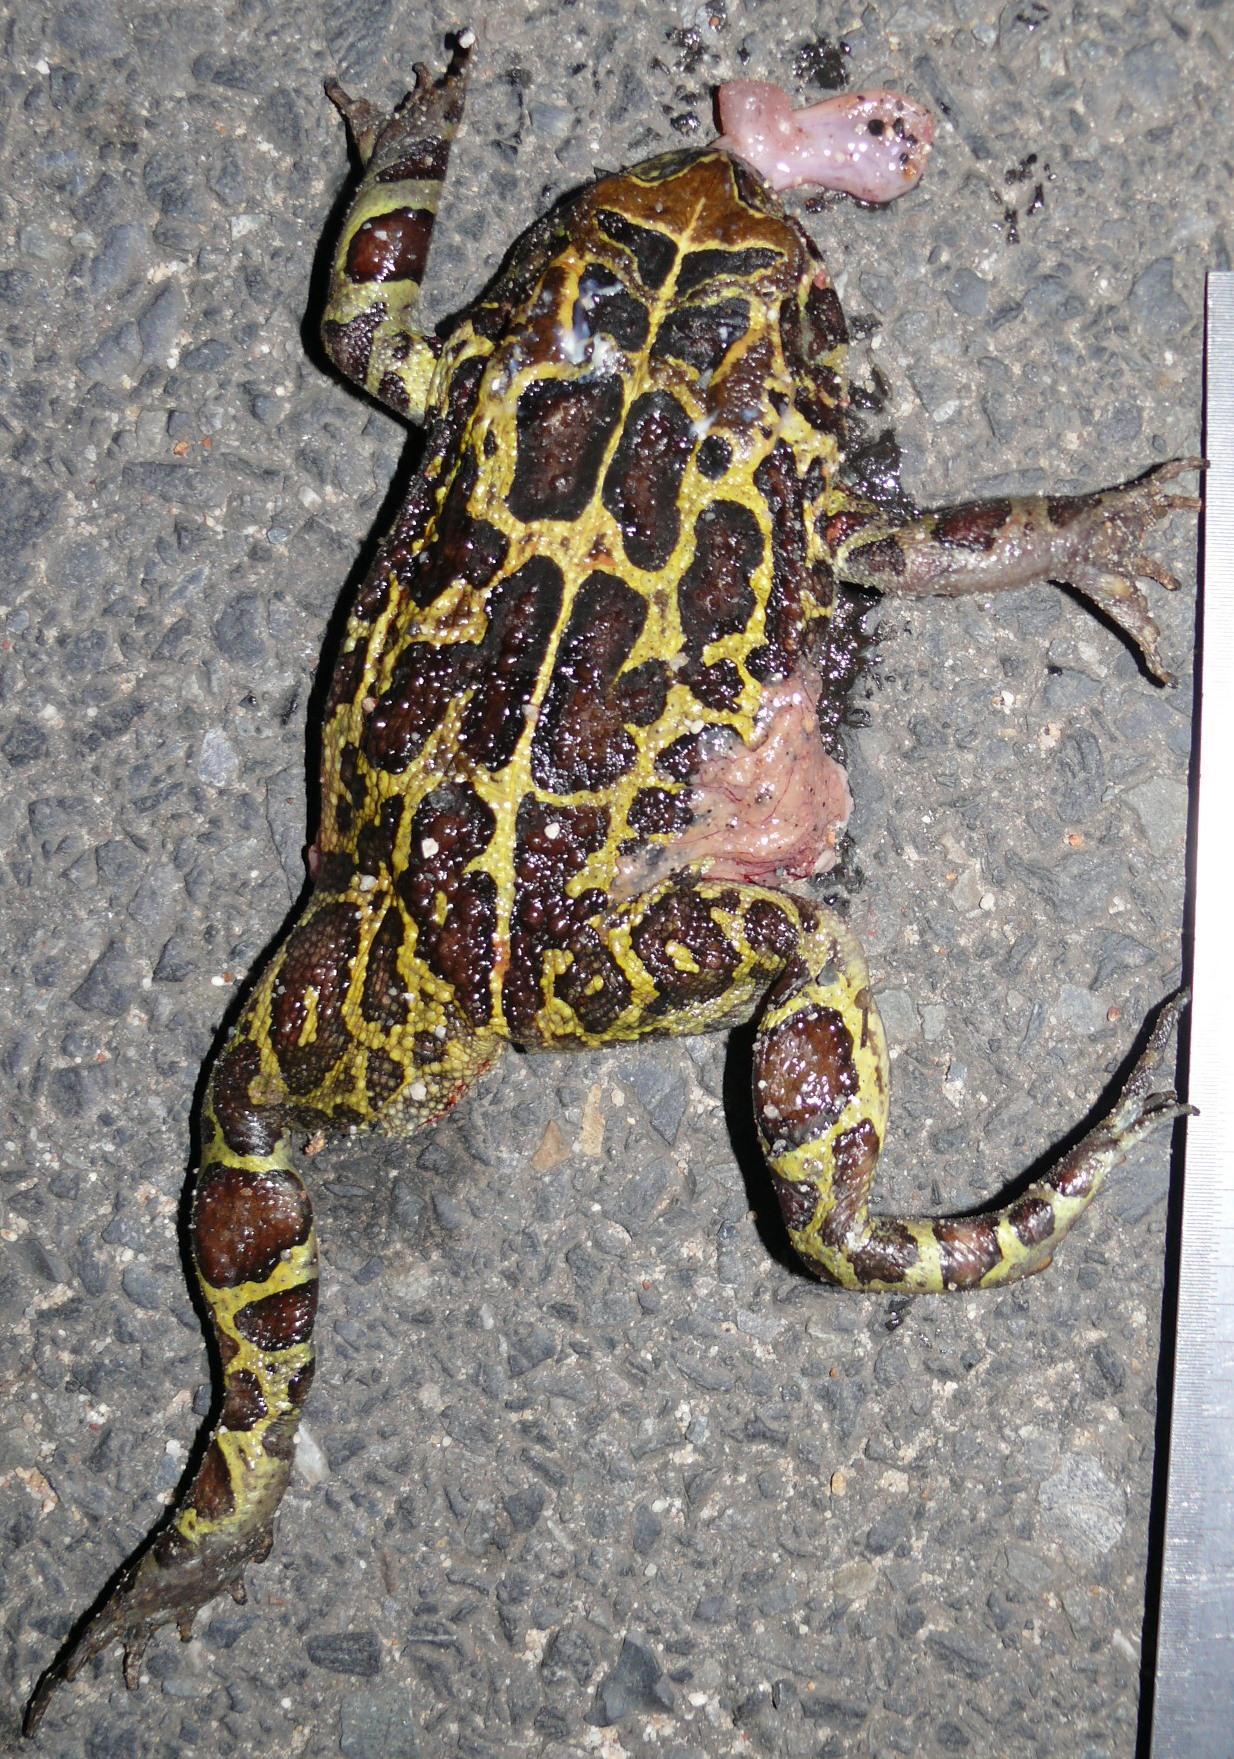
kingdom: Animalia
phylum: Chordata
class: Amphibia
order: Anura
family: Bufonidae
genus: Sclerophrys
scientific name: Sclerophrys pantherina
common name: Panther toad
